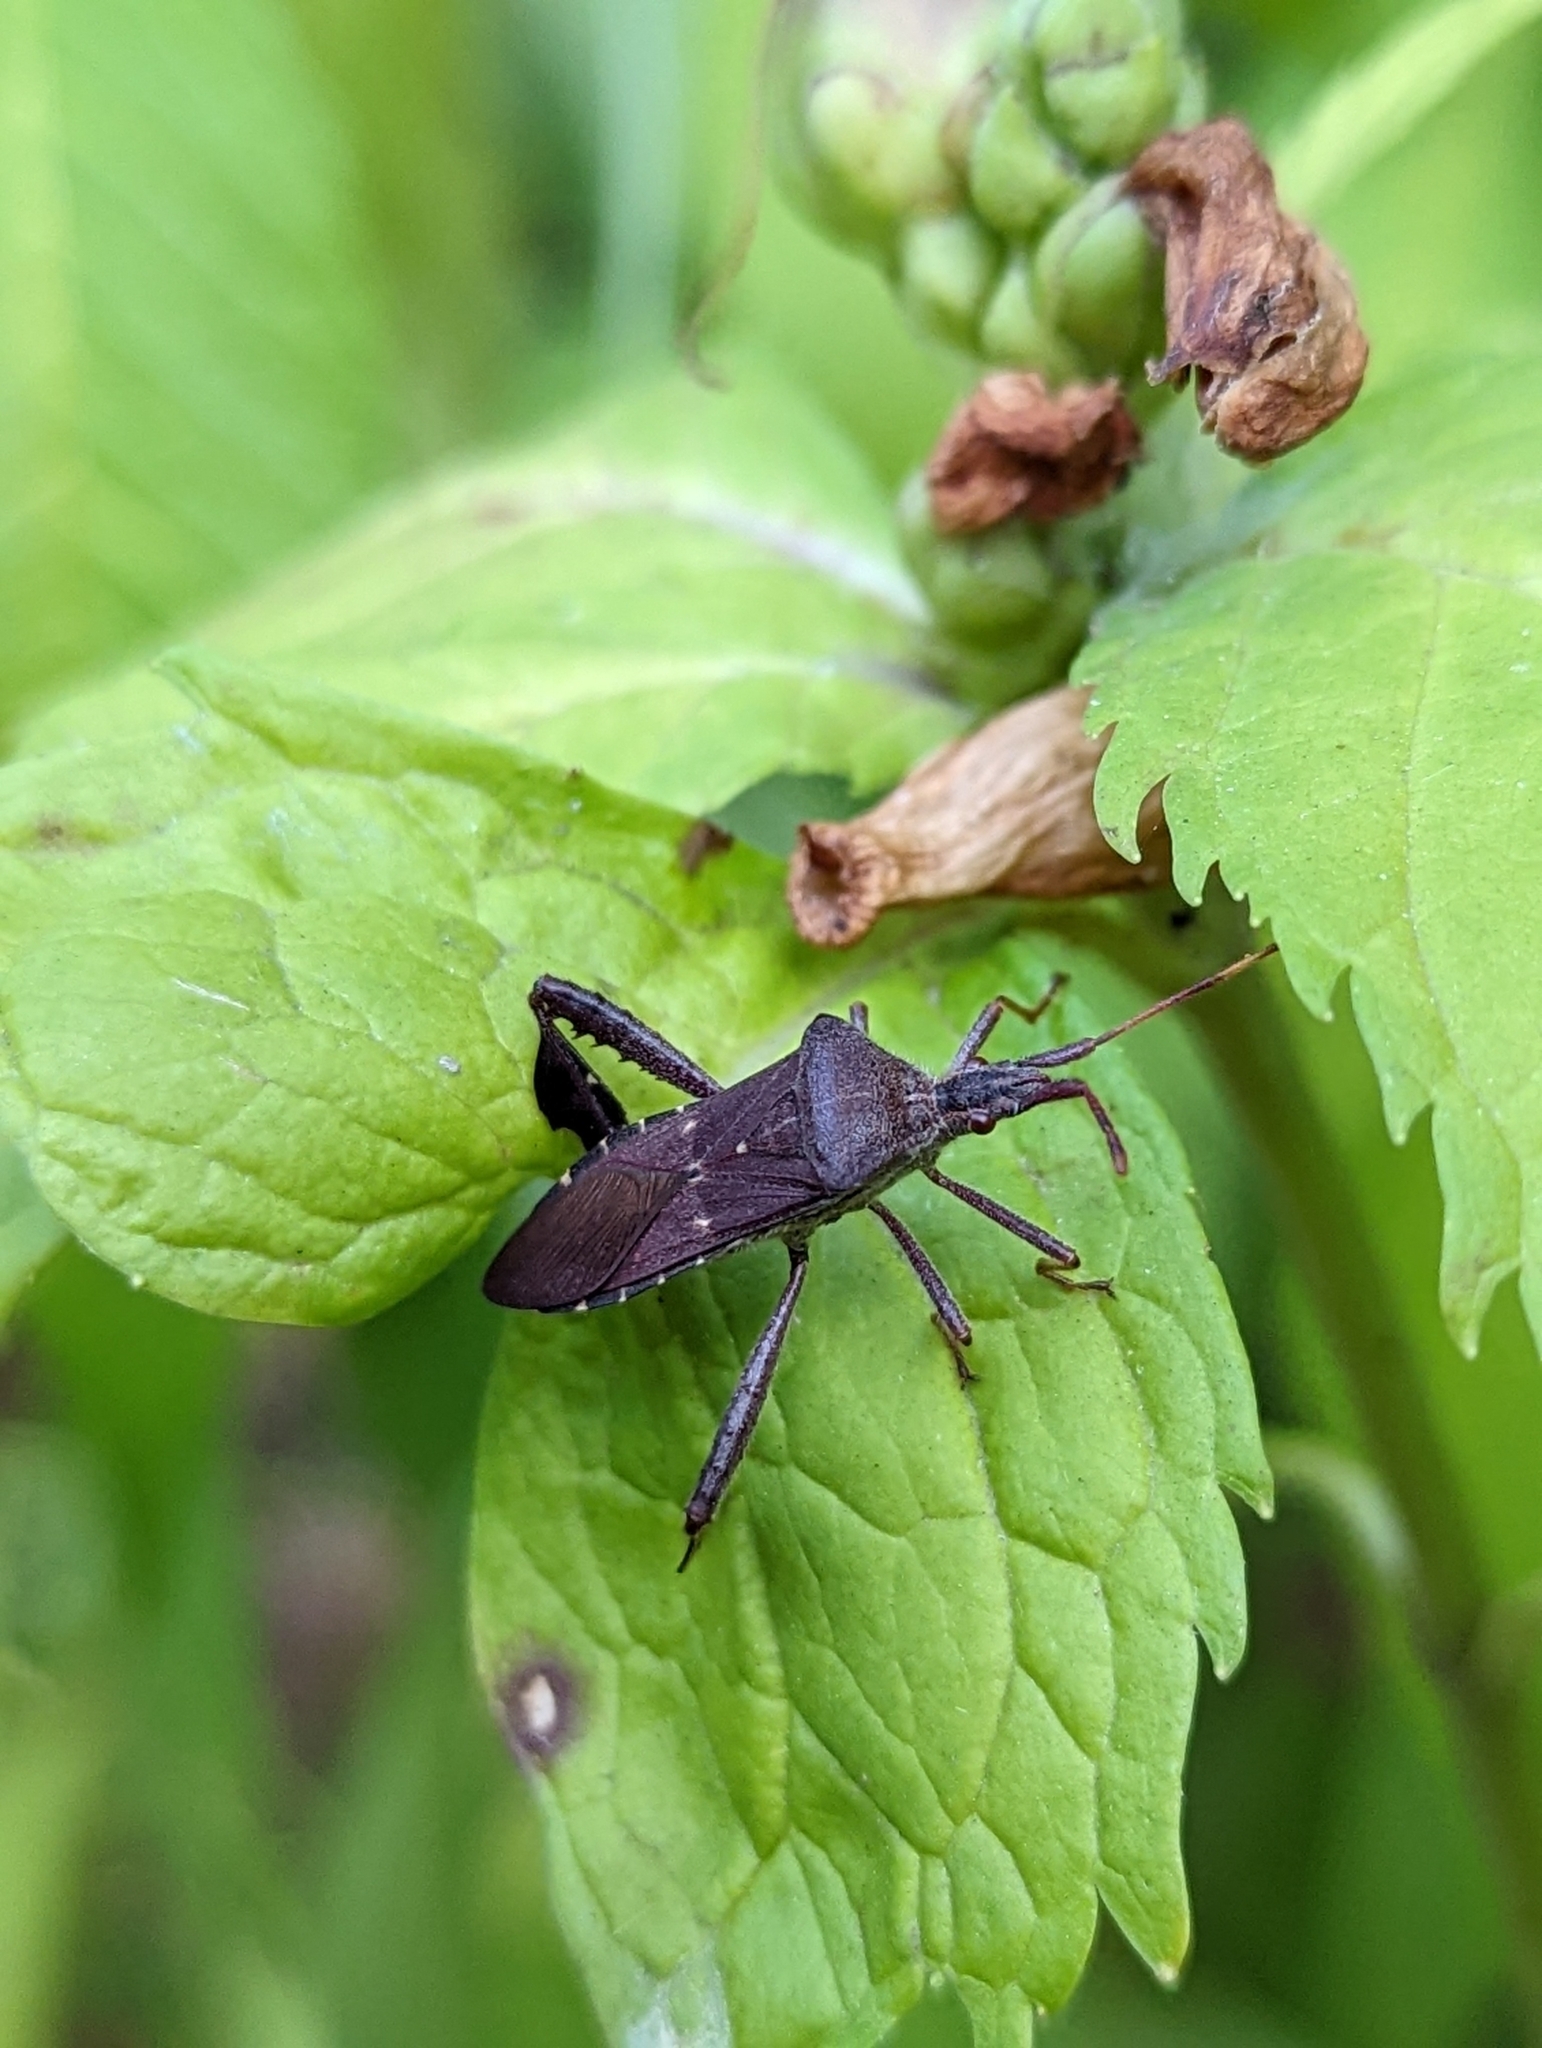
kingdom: Animalia
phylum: Arthropoda
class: Insecta
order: Hemiptera
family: Coreidae
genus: Leptoglossus
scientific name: Leptoglossus oppositus
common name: Northern leaf-footed bug
